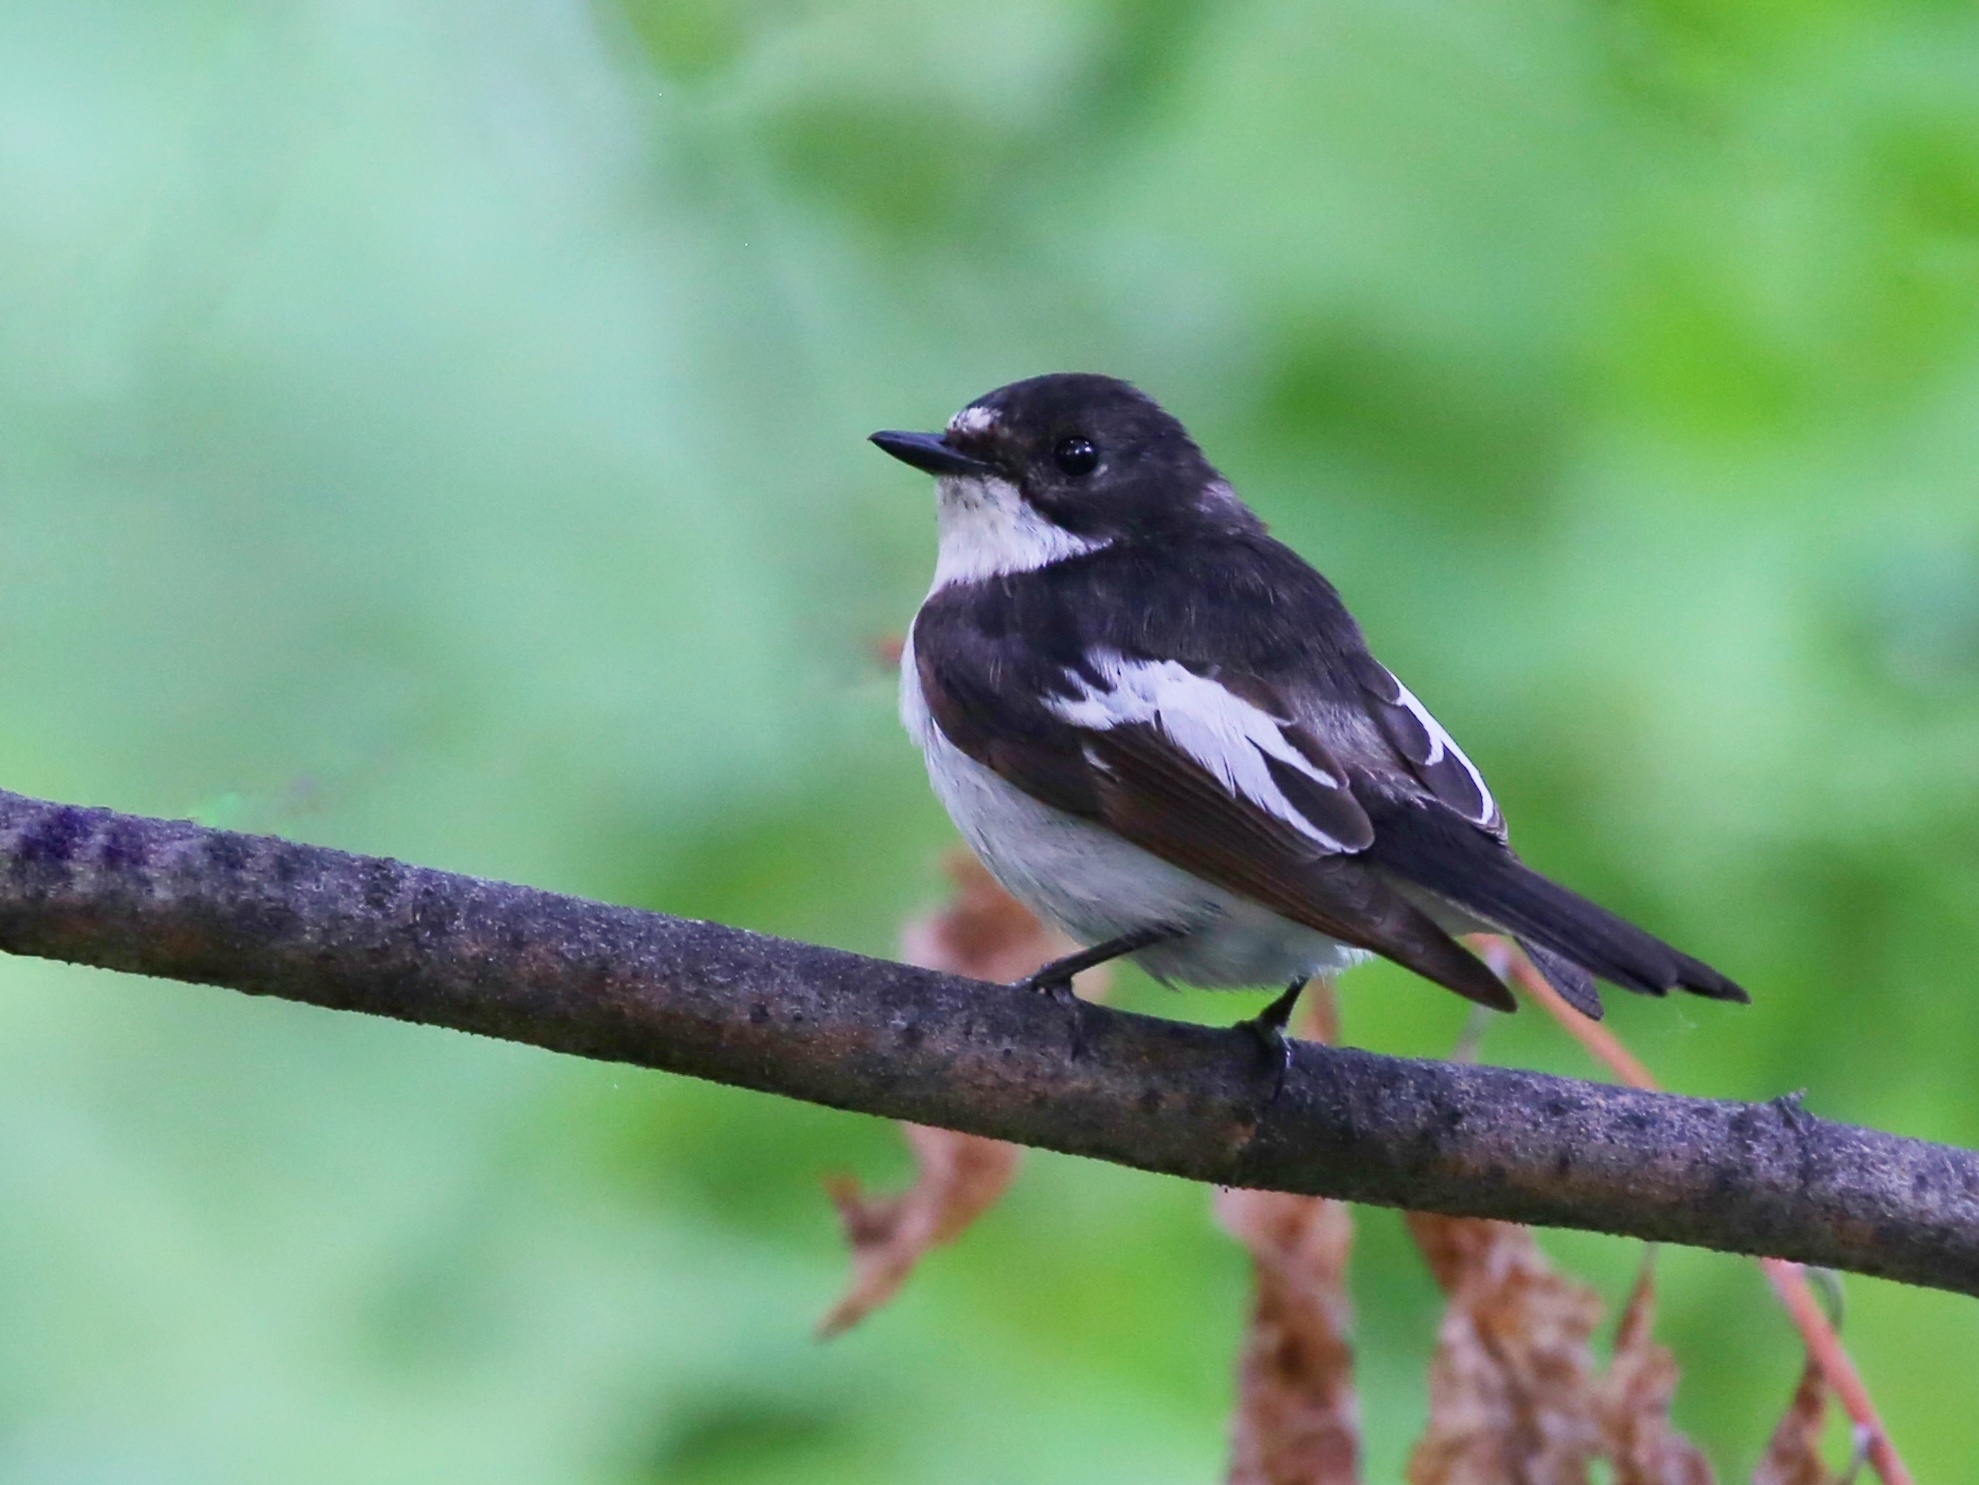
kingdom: Animalia
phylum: Chordata
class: Aves
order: Passeriformes
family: Muscicapidae
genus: Ficedula
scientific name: Ficedula hypoleuca
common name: European pied flycatcher
